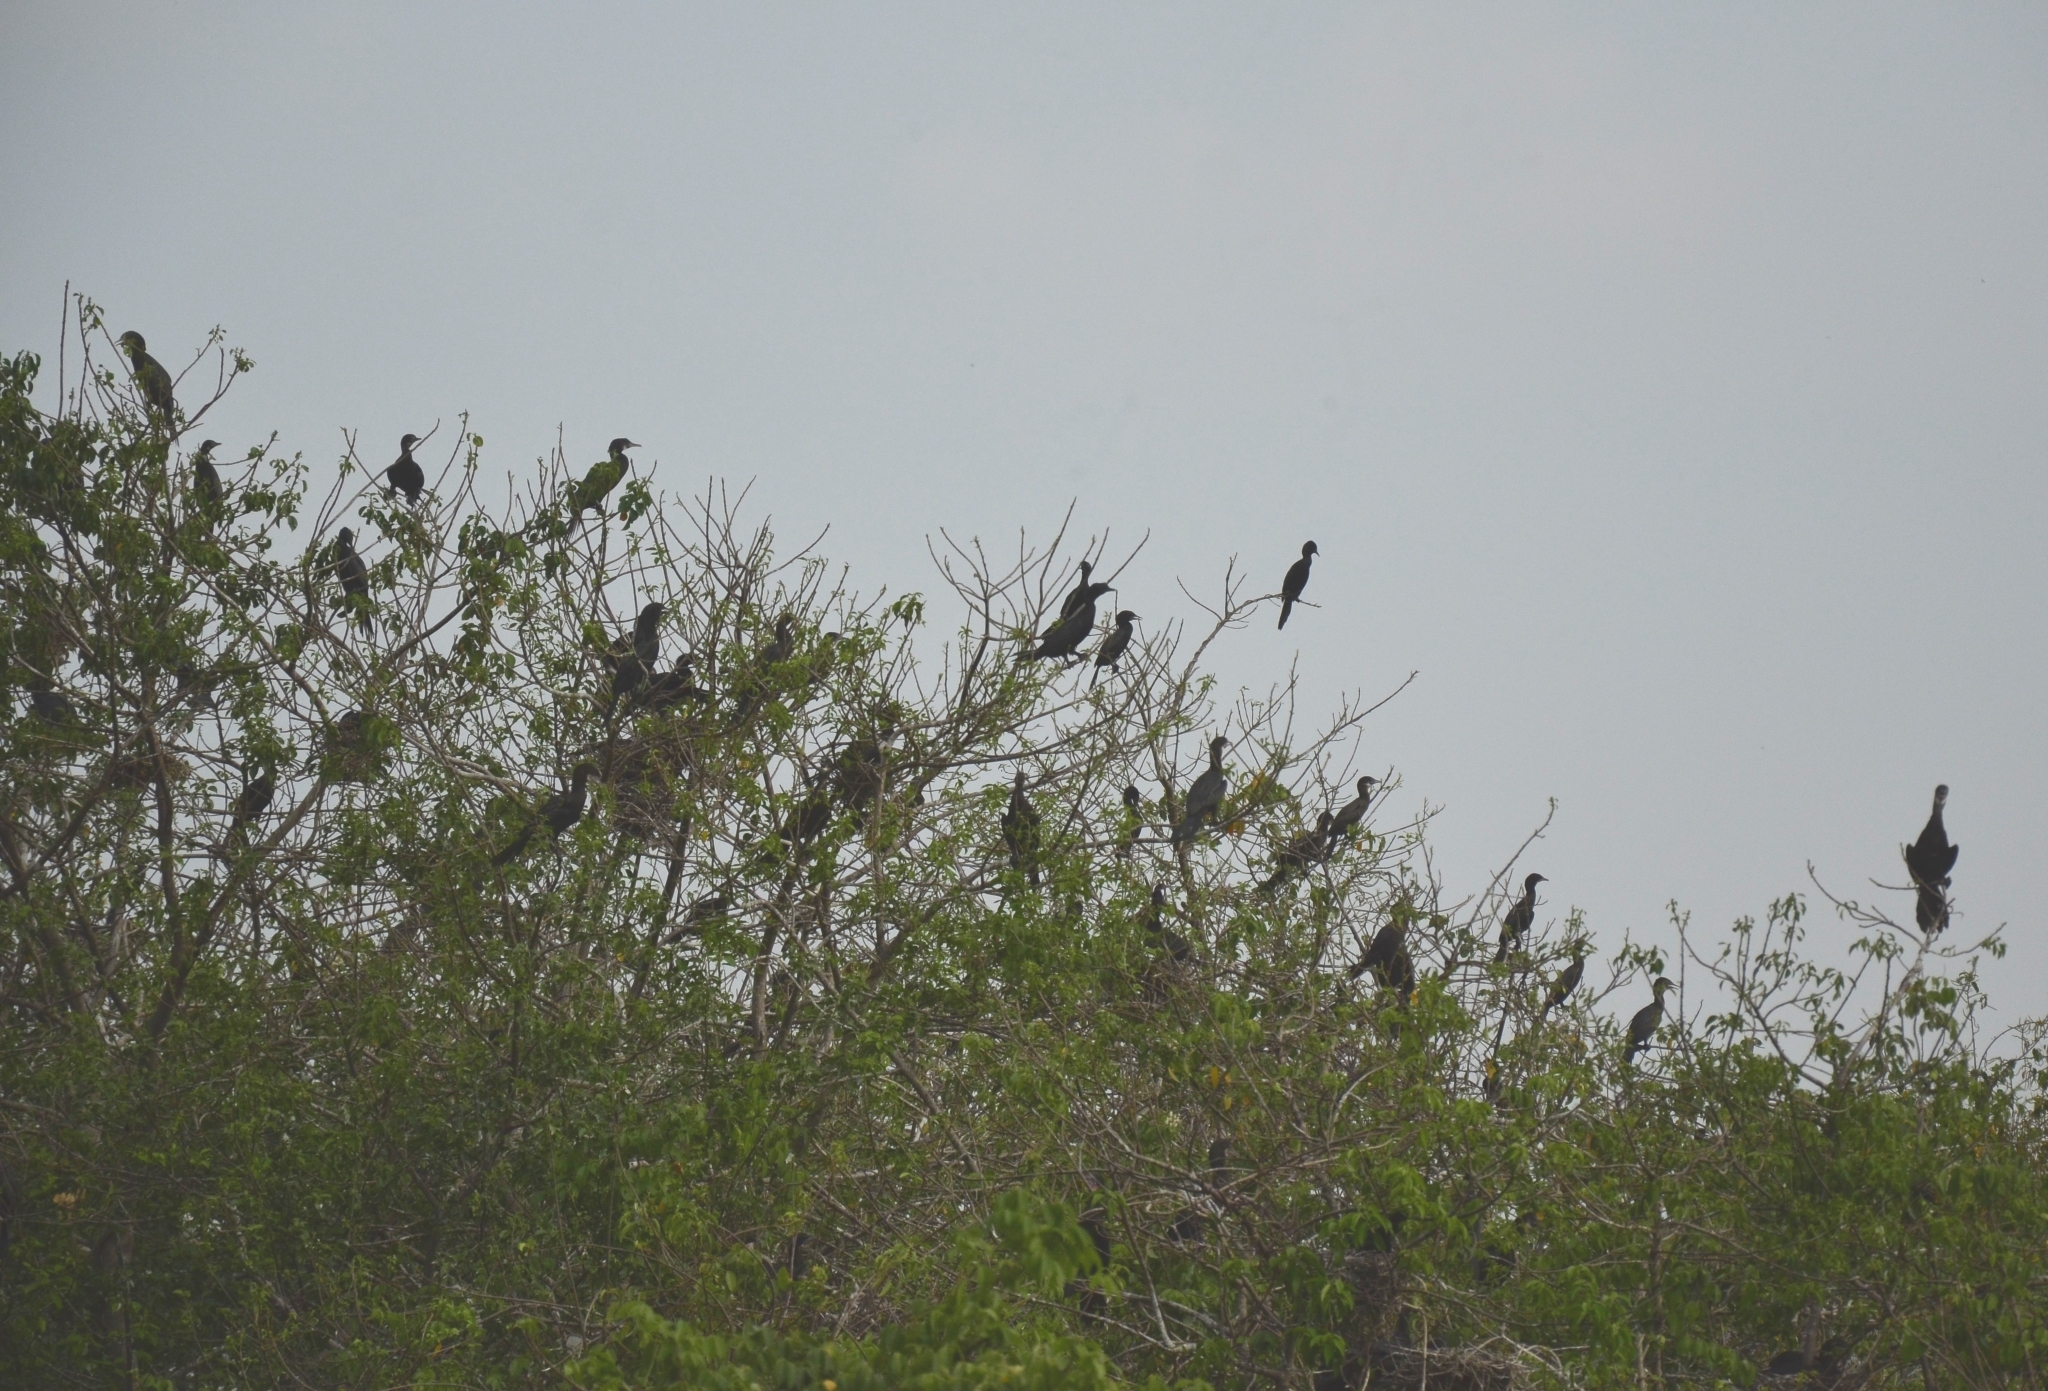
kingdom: Animalia
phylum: Chordata
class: Aves
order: Suliformes
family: Phalacrocoracidae
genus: Microcarbo
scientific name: Microcarbo niger
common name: Little cormorant
